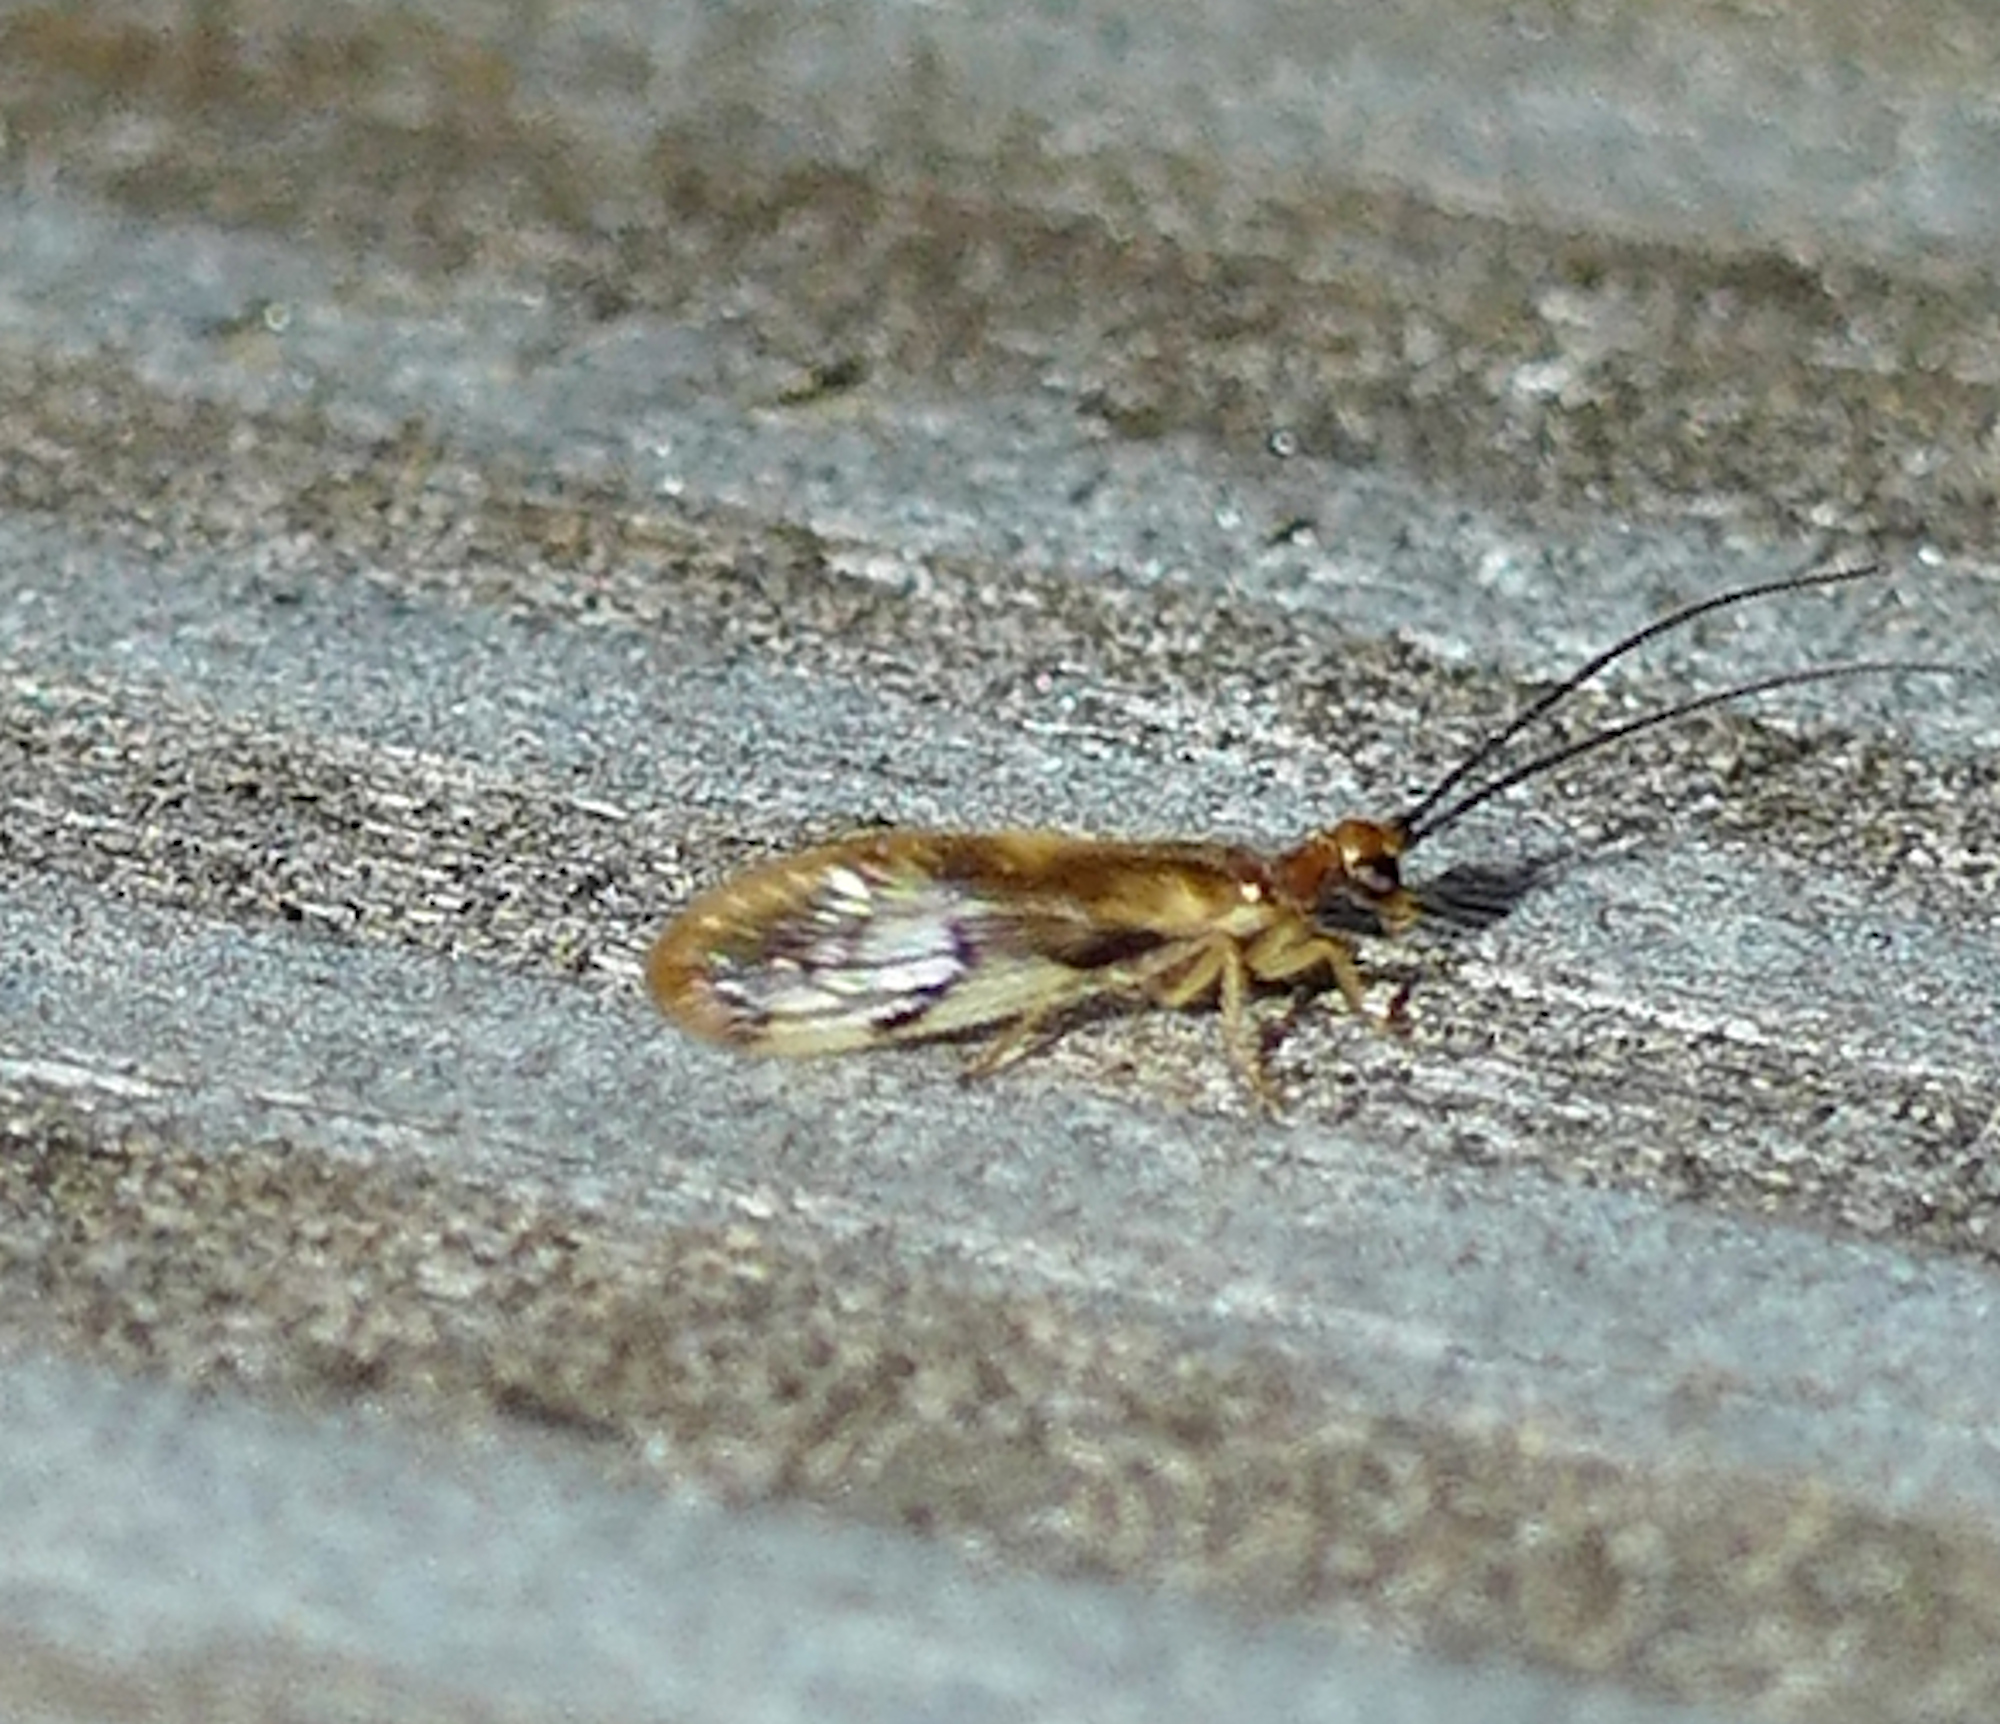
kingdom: Animalia
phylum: Arthropoda
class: Insecta
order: Neuroptera
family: Sisyridae
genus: Climacia
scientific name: Climacia chapini
